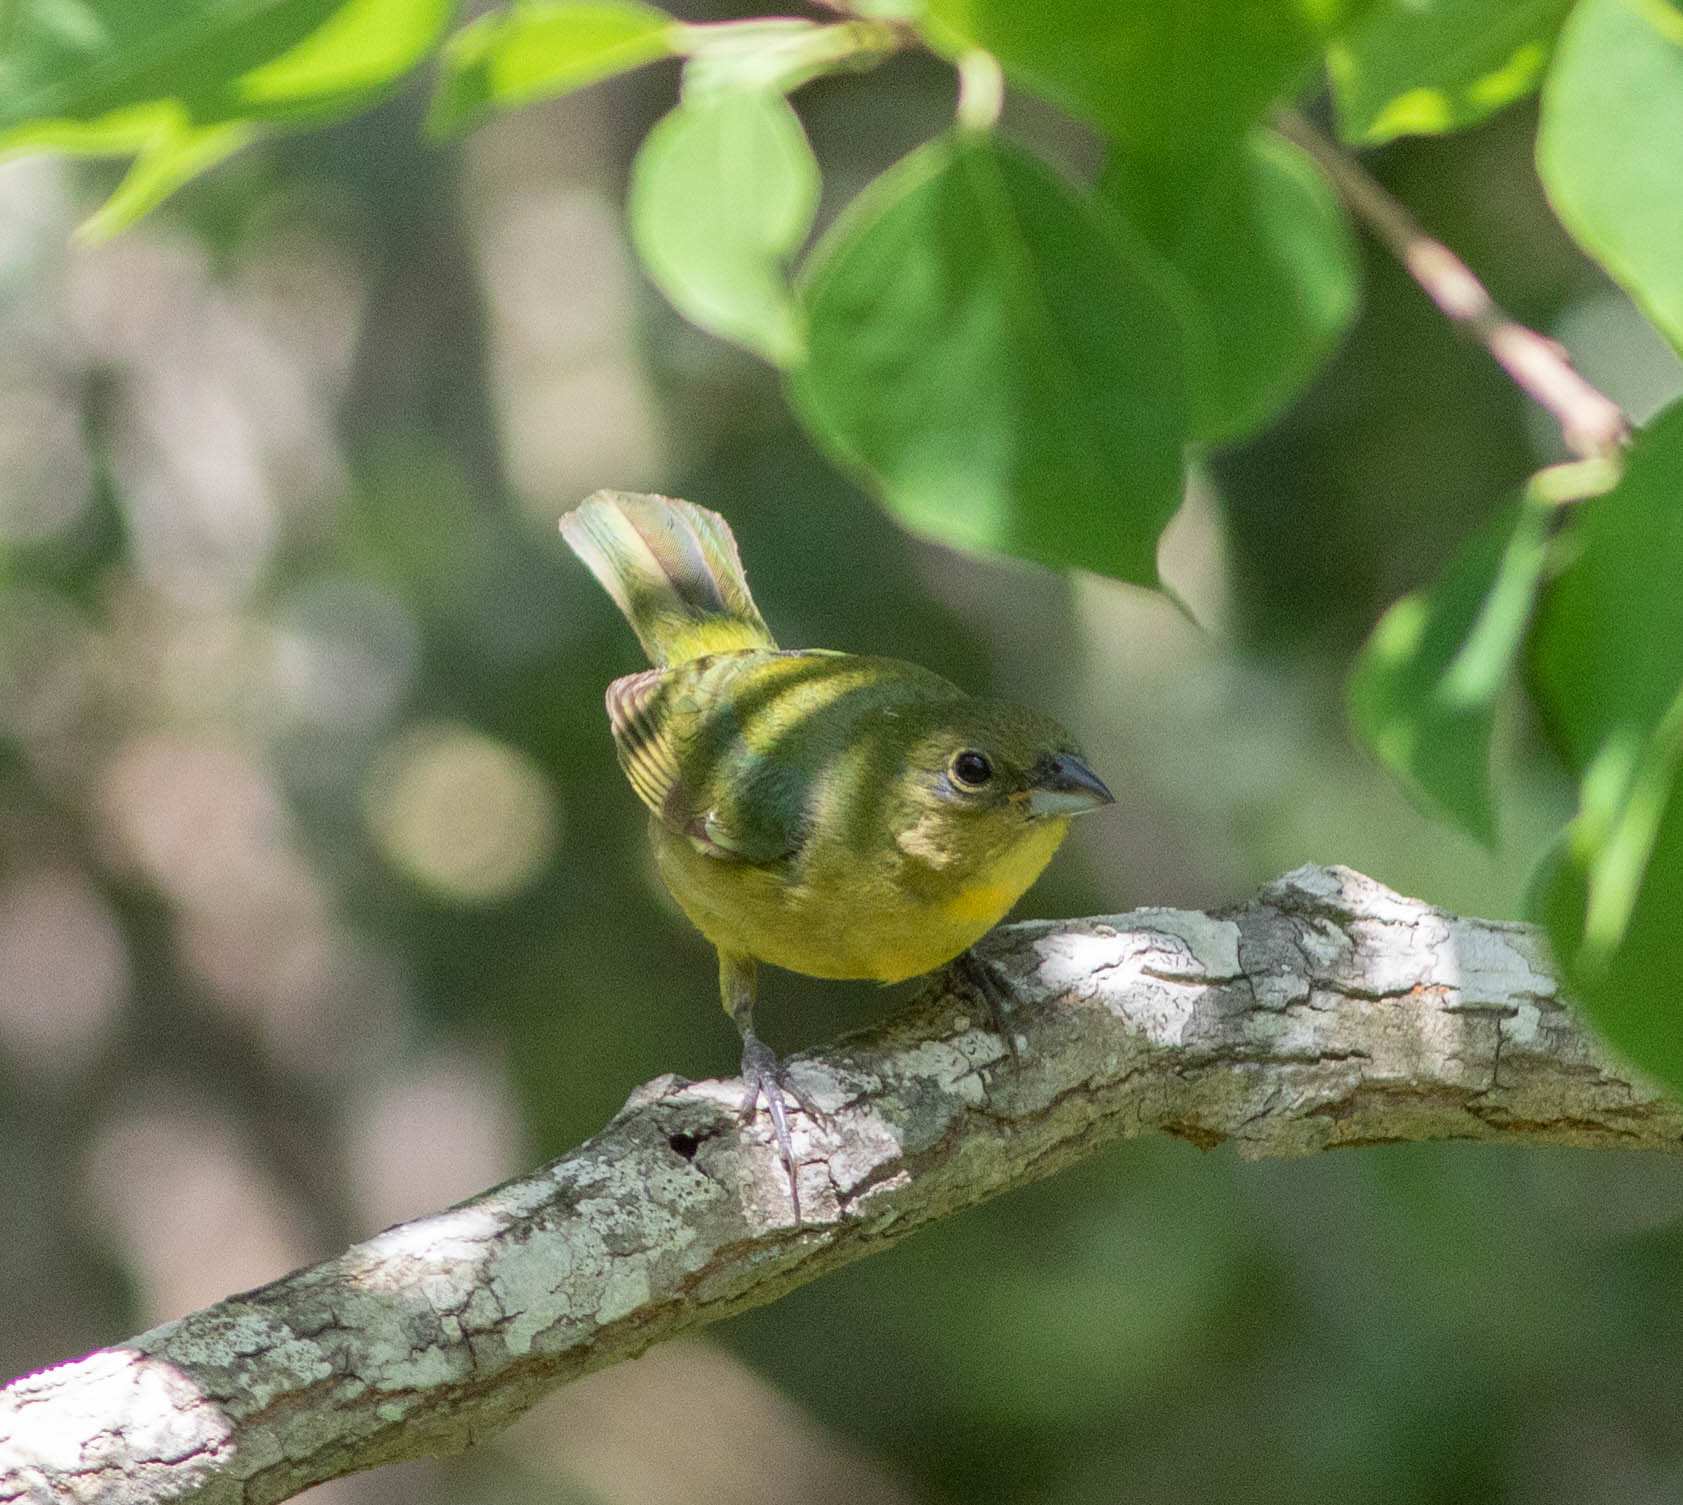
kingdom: Animalia
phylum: Chordata
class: Aves
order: Passeriformes
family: Cardinalidae
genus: Passerina
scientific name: Passerina ciris
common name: Painted bunting
